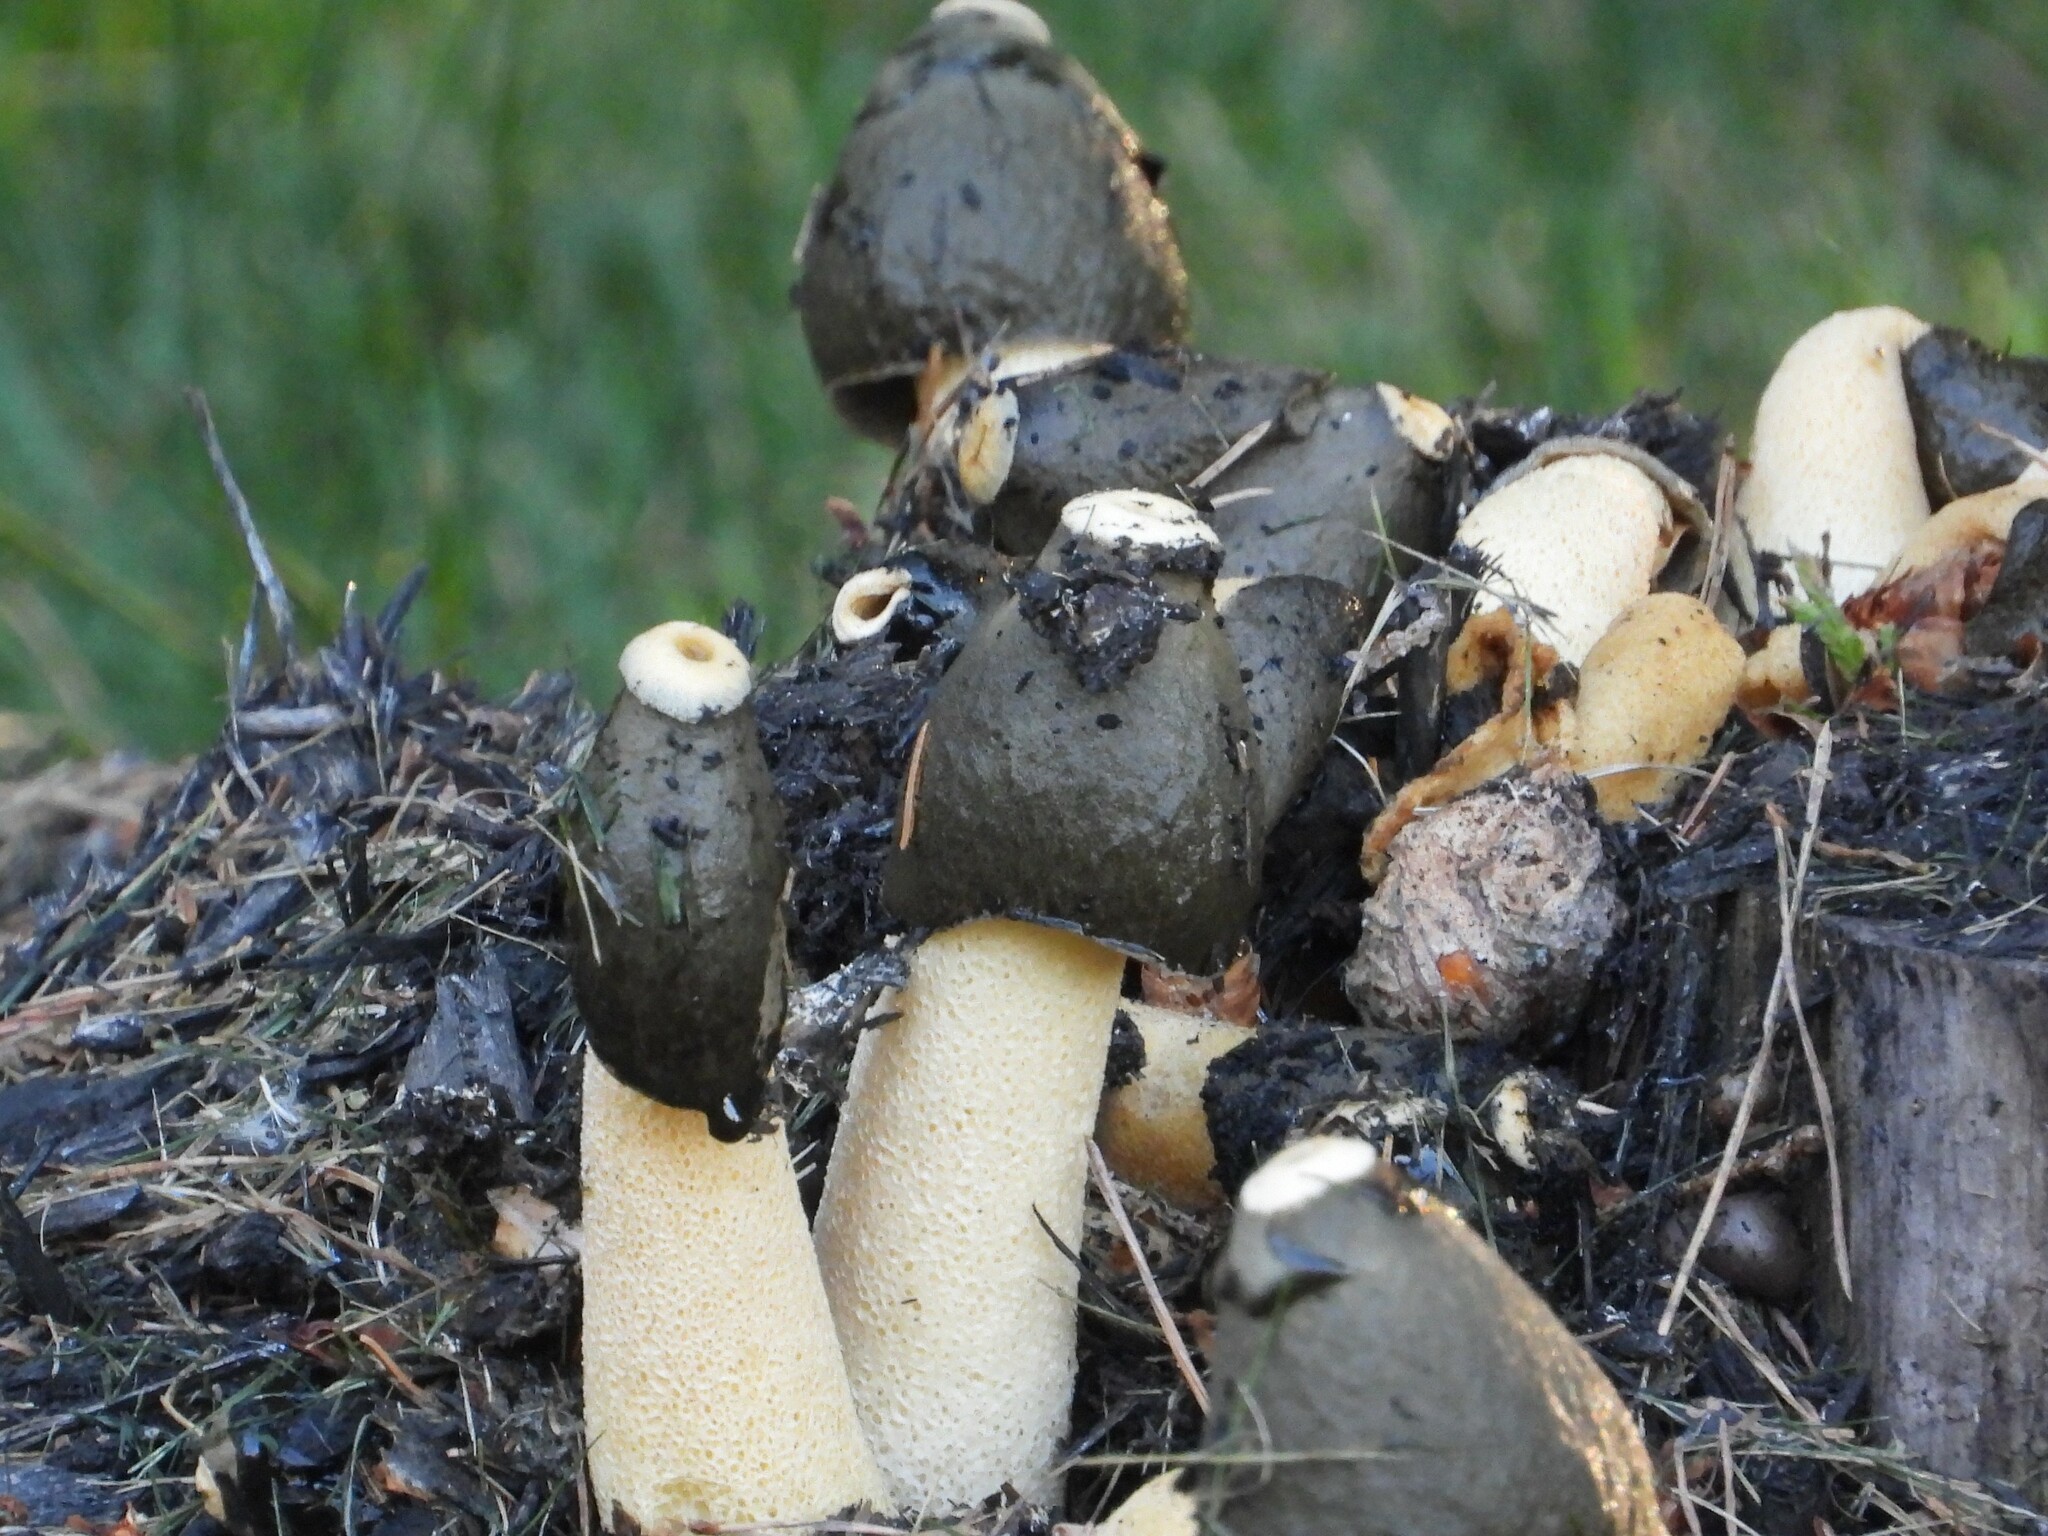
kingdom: Fungi
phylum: Basidiomycota
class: Agaricomycetes
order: Phallales
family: Phallaceae
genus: Phallus
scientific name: Phallus ravenelii
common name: Ravenel's stinkhorn
